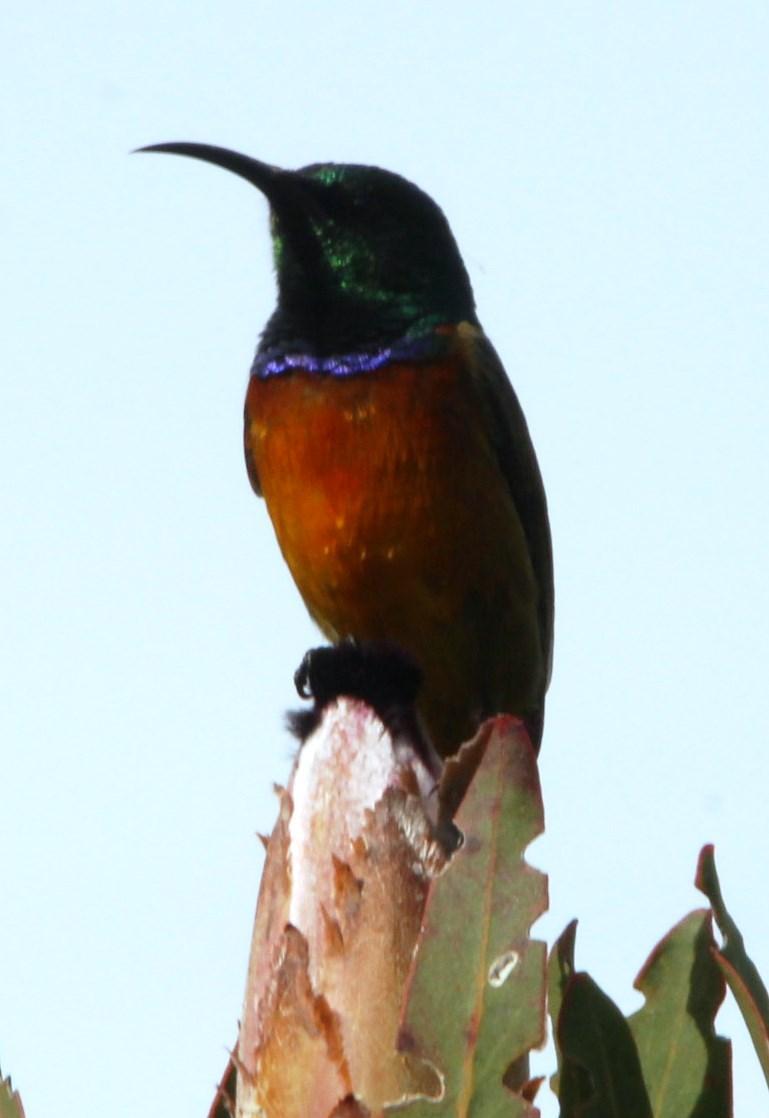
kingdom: Animalia
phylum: Chordata
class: Aves
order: Passeriformes
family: Nectariniidae
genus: Anthobaphes
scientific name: Anthobaphes violacea
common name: Orange-breasted sunbird
